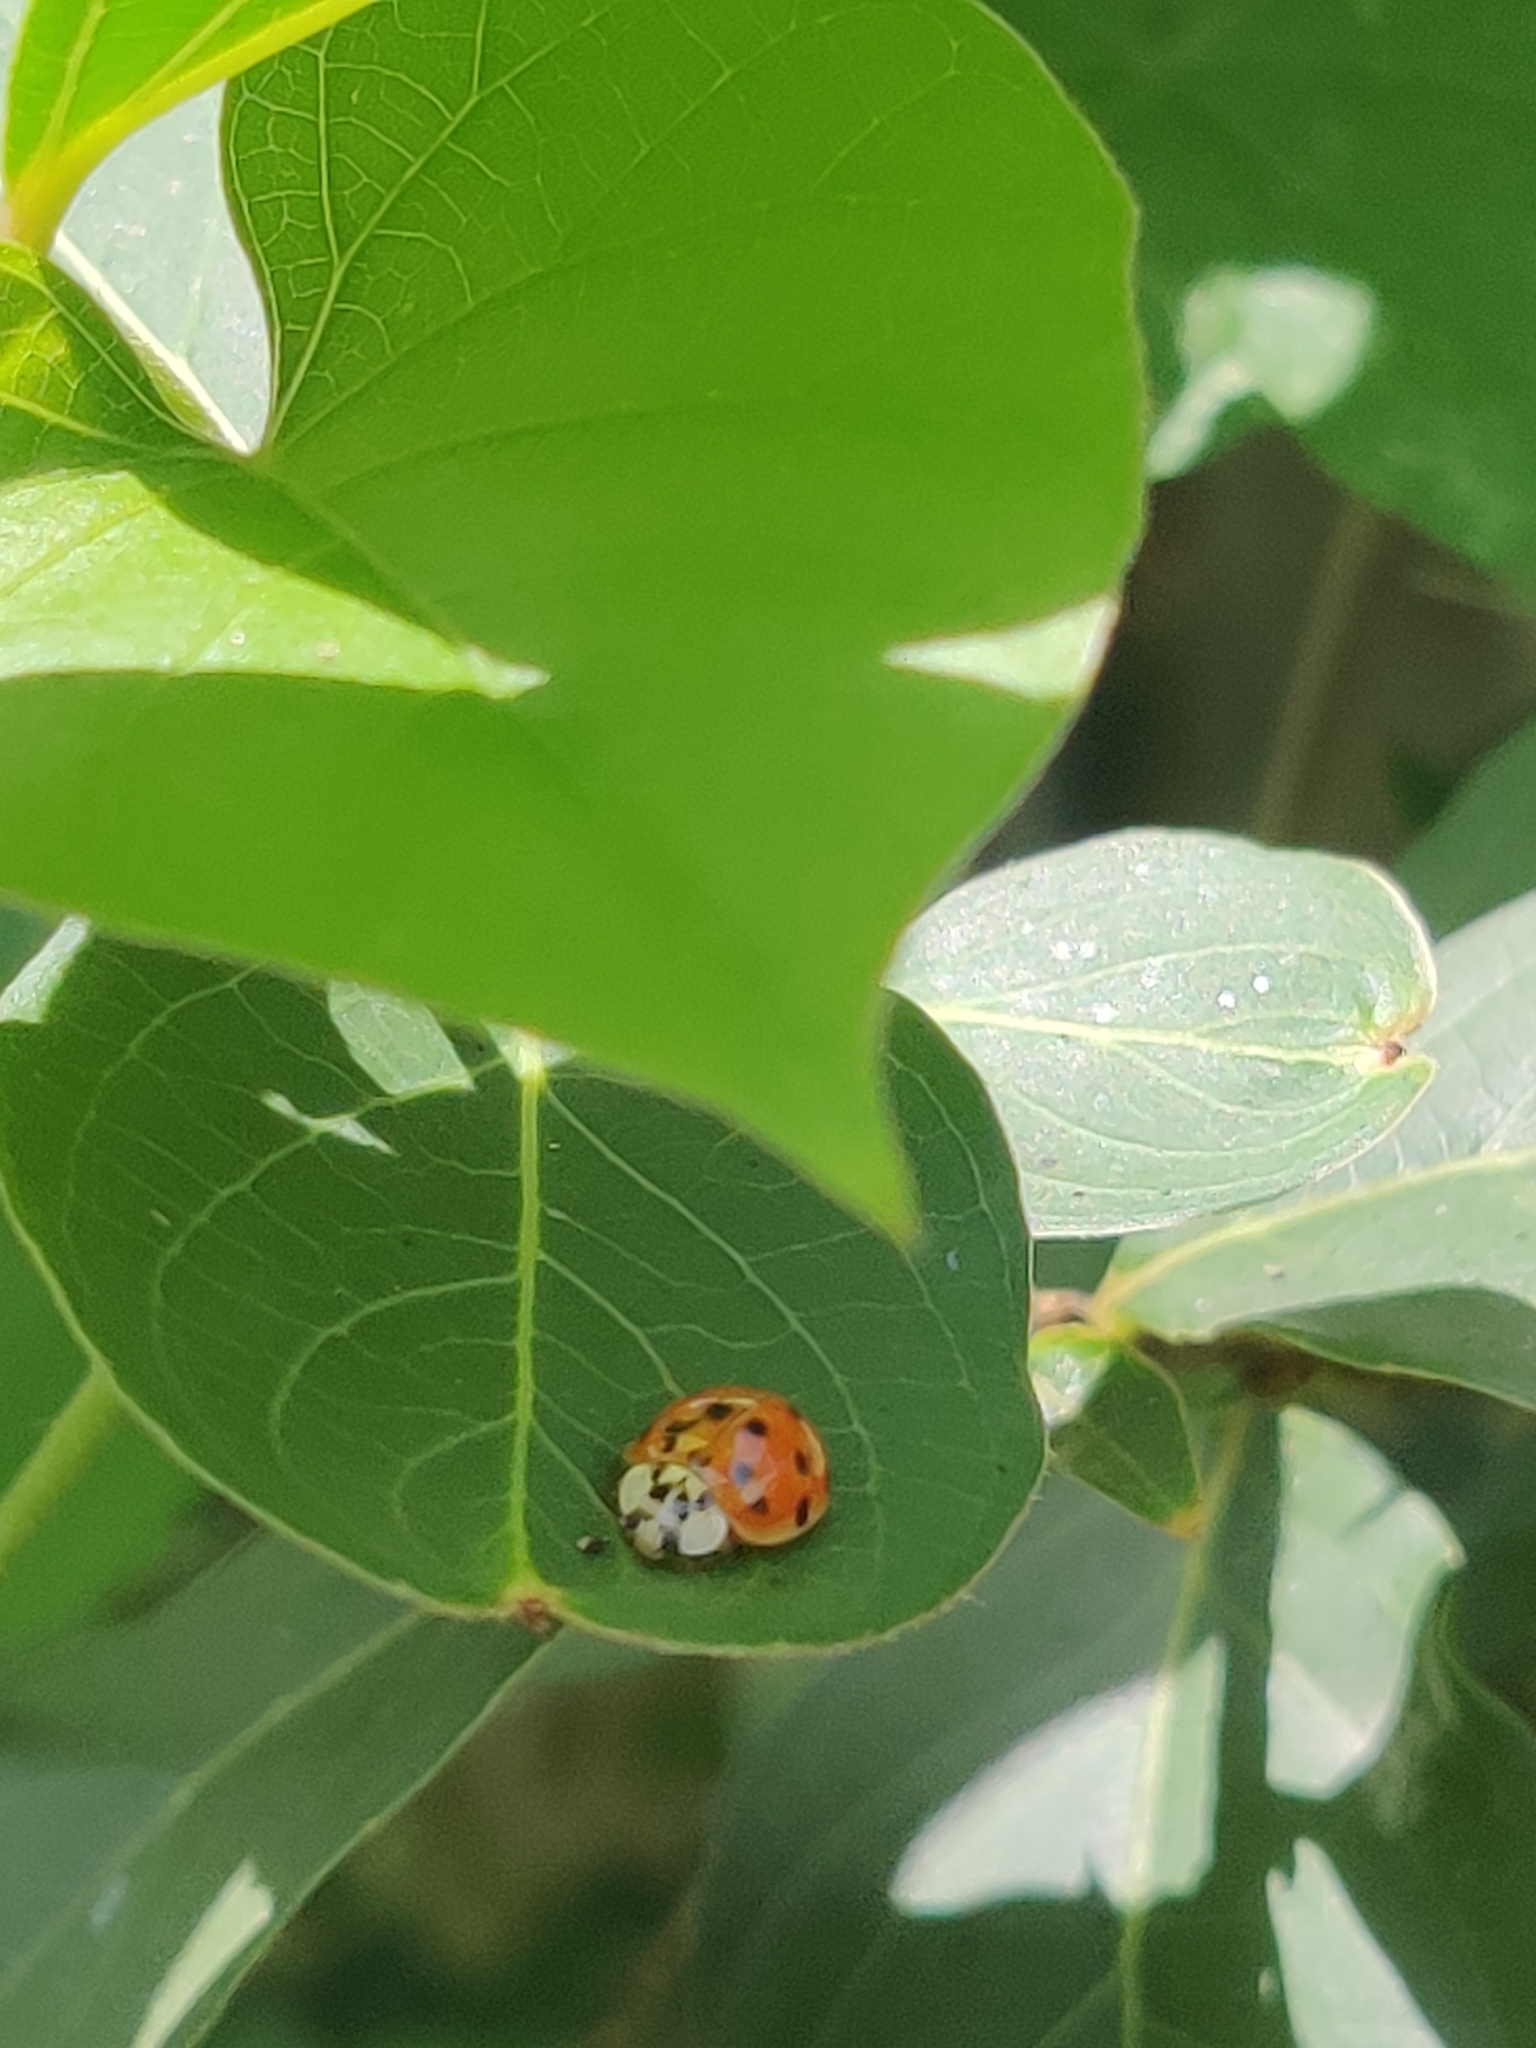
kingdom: Animalia
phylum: Arthropoda
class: Insecta
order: Coleoptera
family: Coccinellidae
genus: Harmonia
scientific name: Harmonia axyridis
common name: Harlequin ladybird
